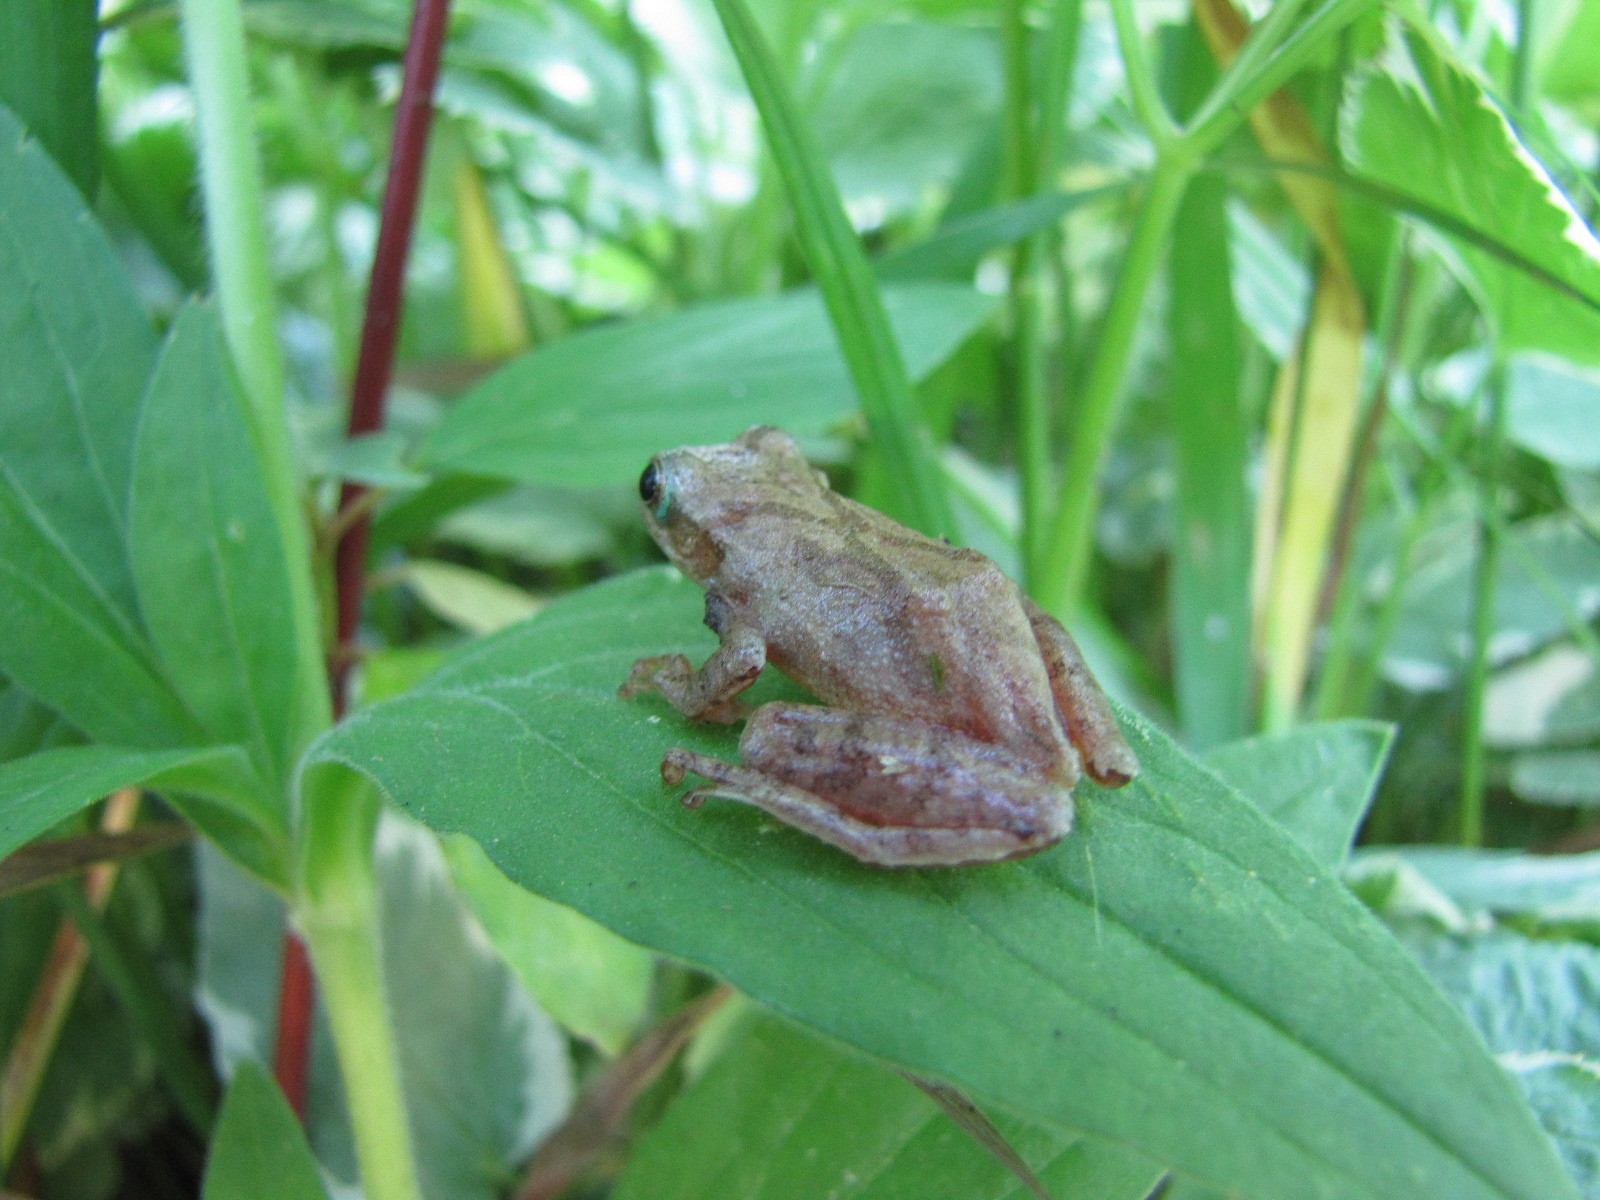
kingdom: Animalia
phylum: Chordata
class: Amphibia
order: Anura
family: Hylidae
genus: Pseudacris
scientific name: Pseudacris crucifer
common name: Spring peeper
